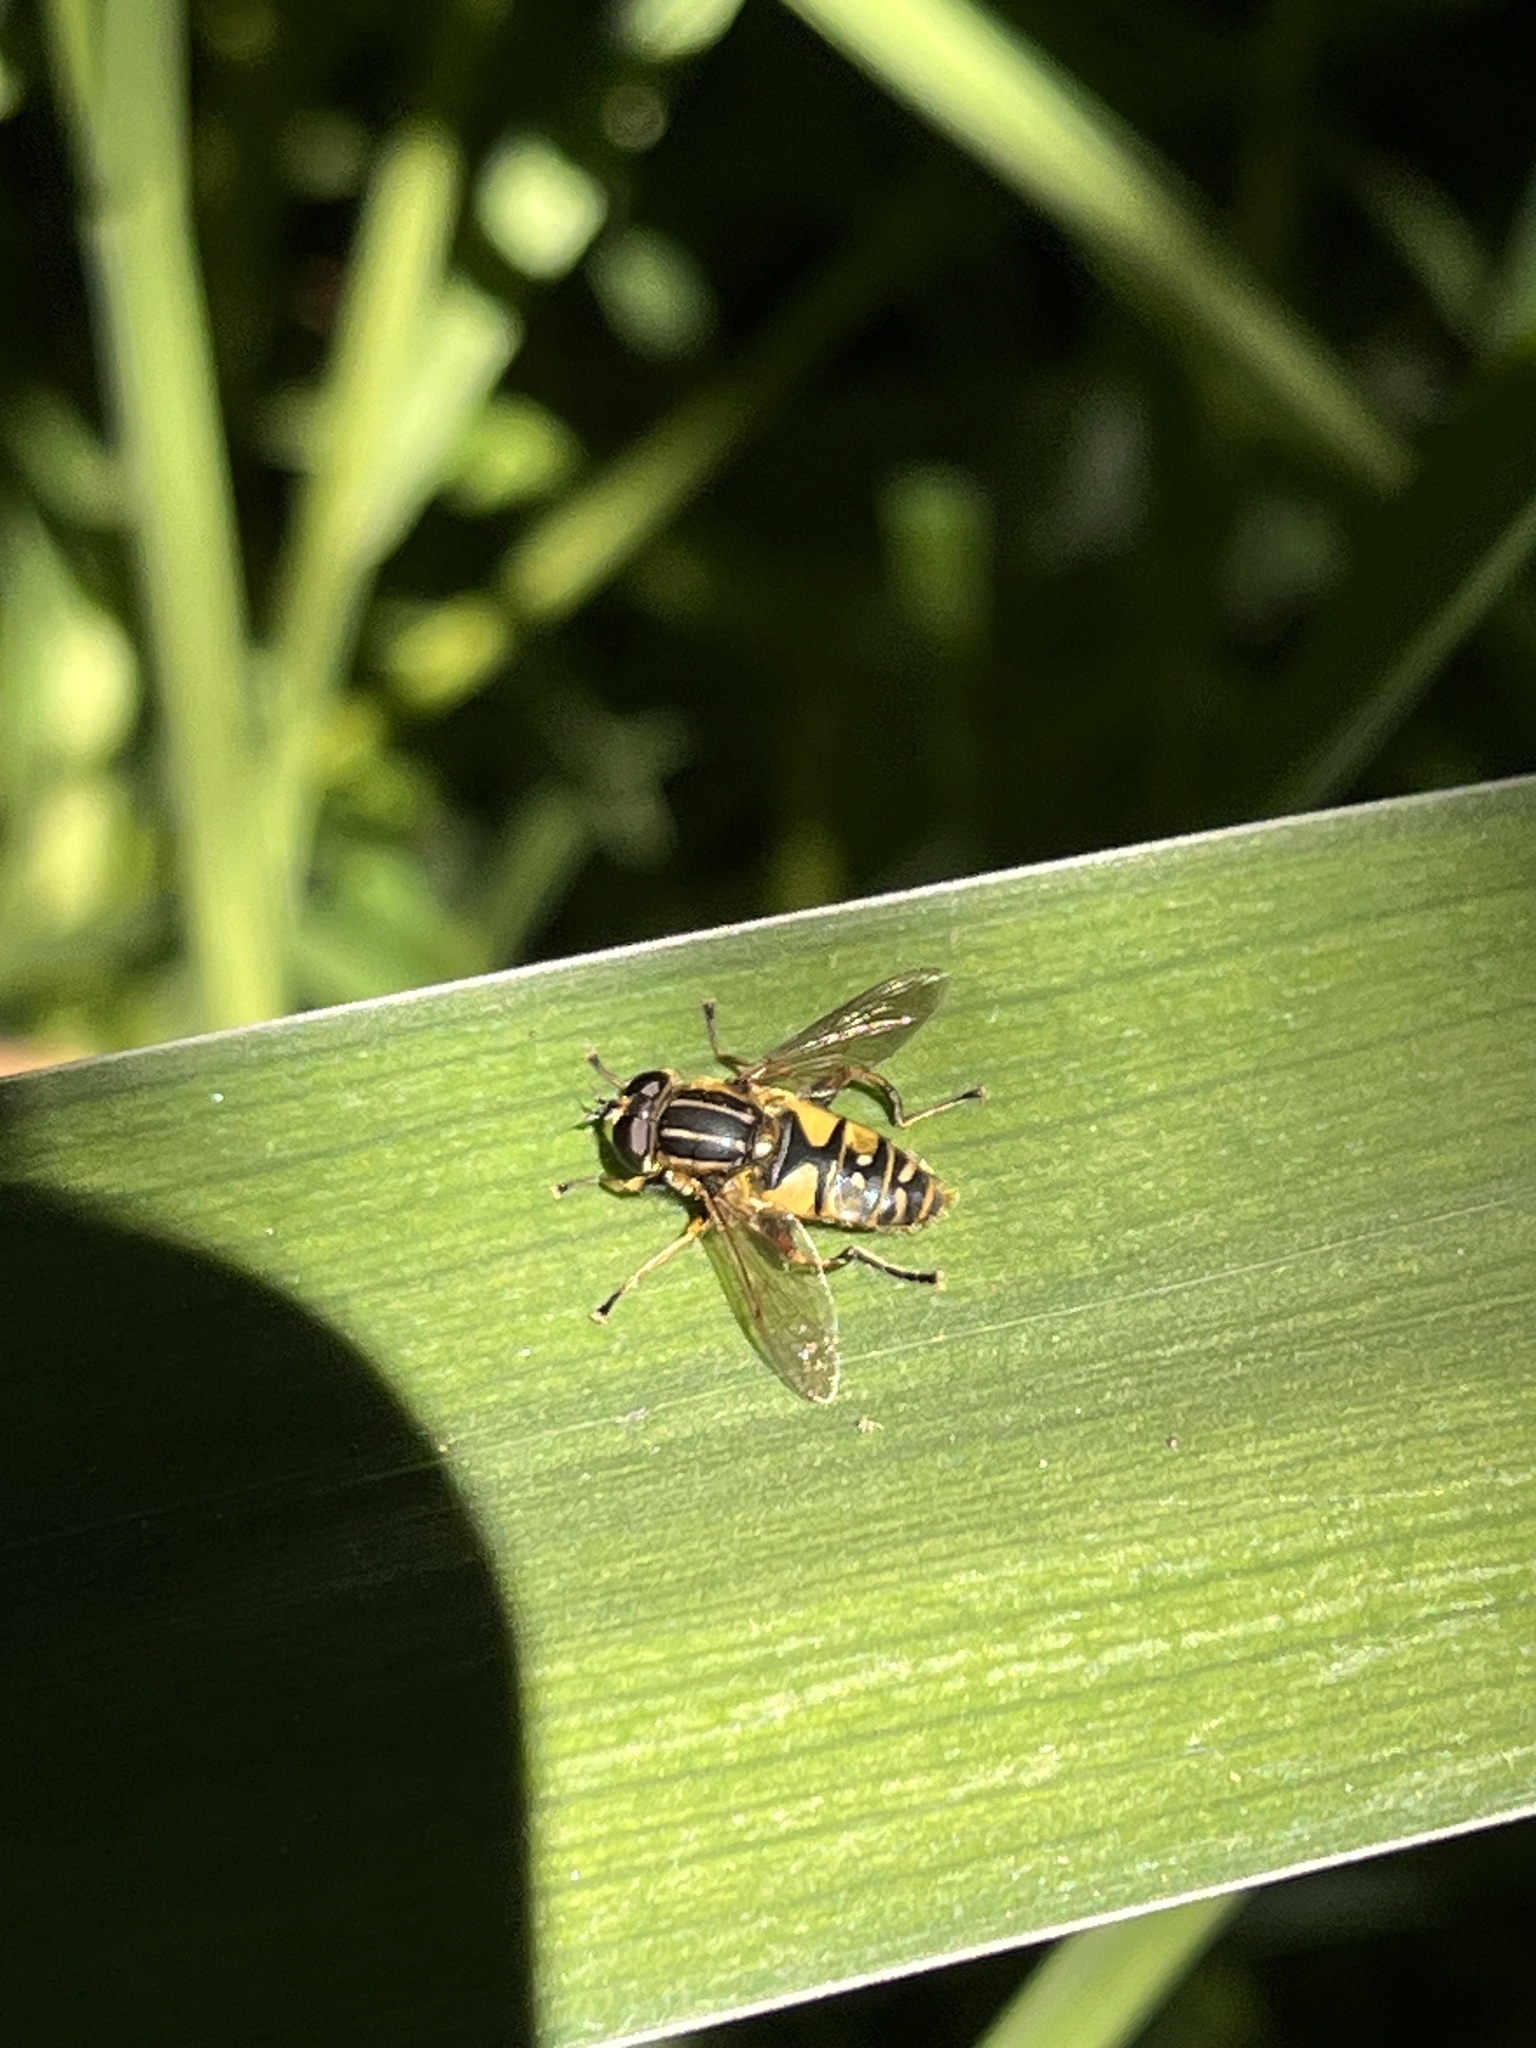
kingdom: Animalia
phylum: Arthropoda
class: Insecta
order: Diptera
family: Syrphidae
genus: Helophilus
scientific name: Helophilus pendulus
